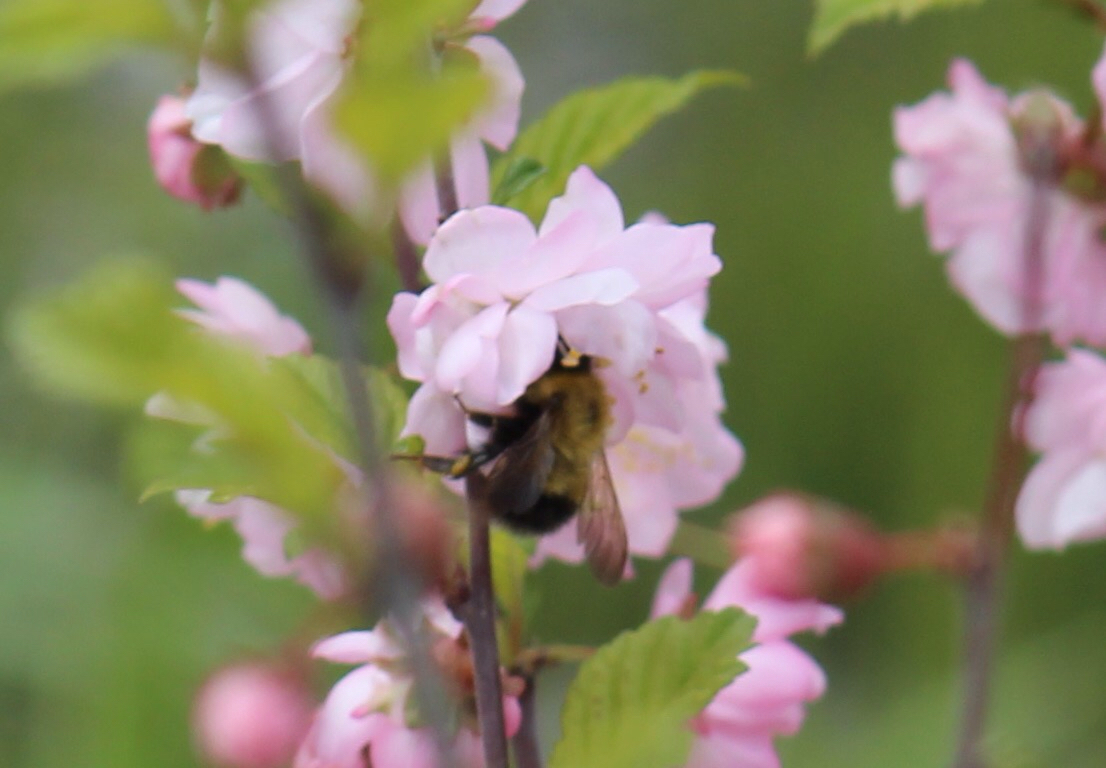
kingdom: Animalia
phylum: Arthropoda
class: Insecta
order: Hymenoptera
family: Apidae
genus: Bombus
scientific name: Bombus perplexus
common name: Confusing bumble bee
